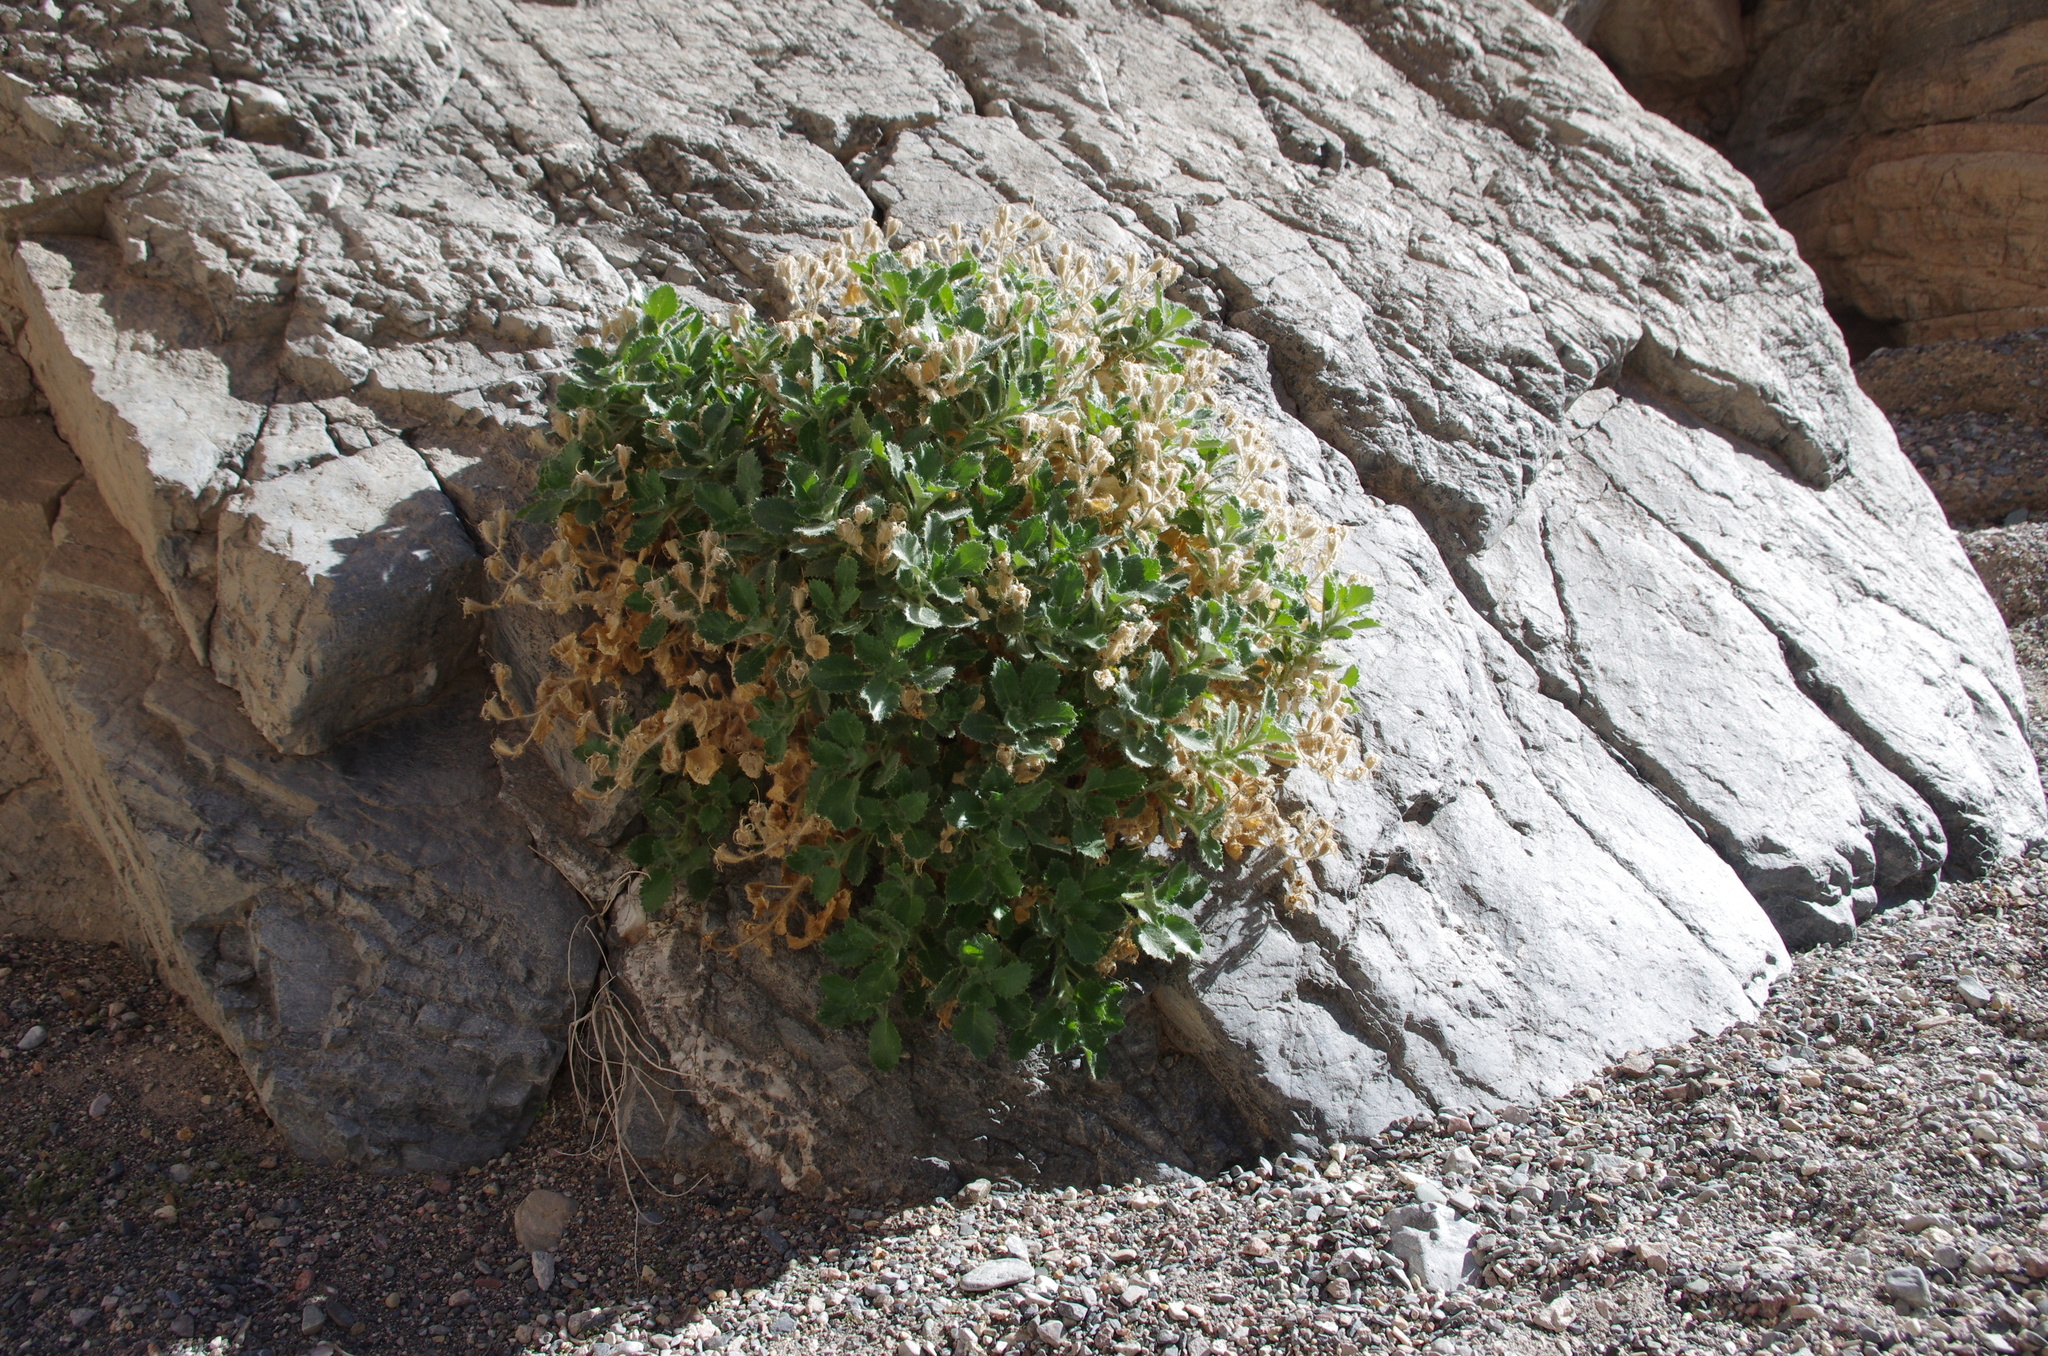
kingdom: Plantae
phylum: Tracheophyta
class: Magnoliopsida
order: Cornales
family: Loasaceae
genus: Eucnide
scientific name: Eucnide urens
